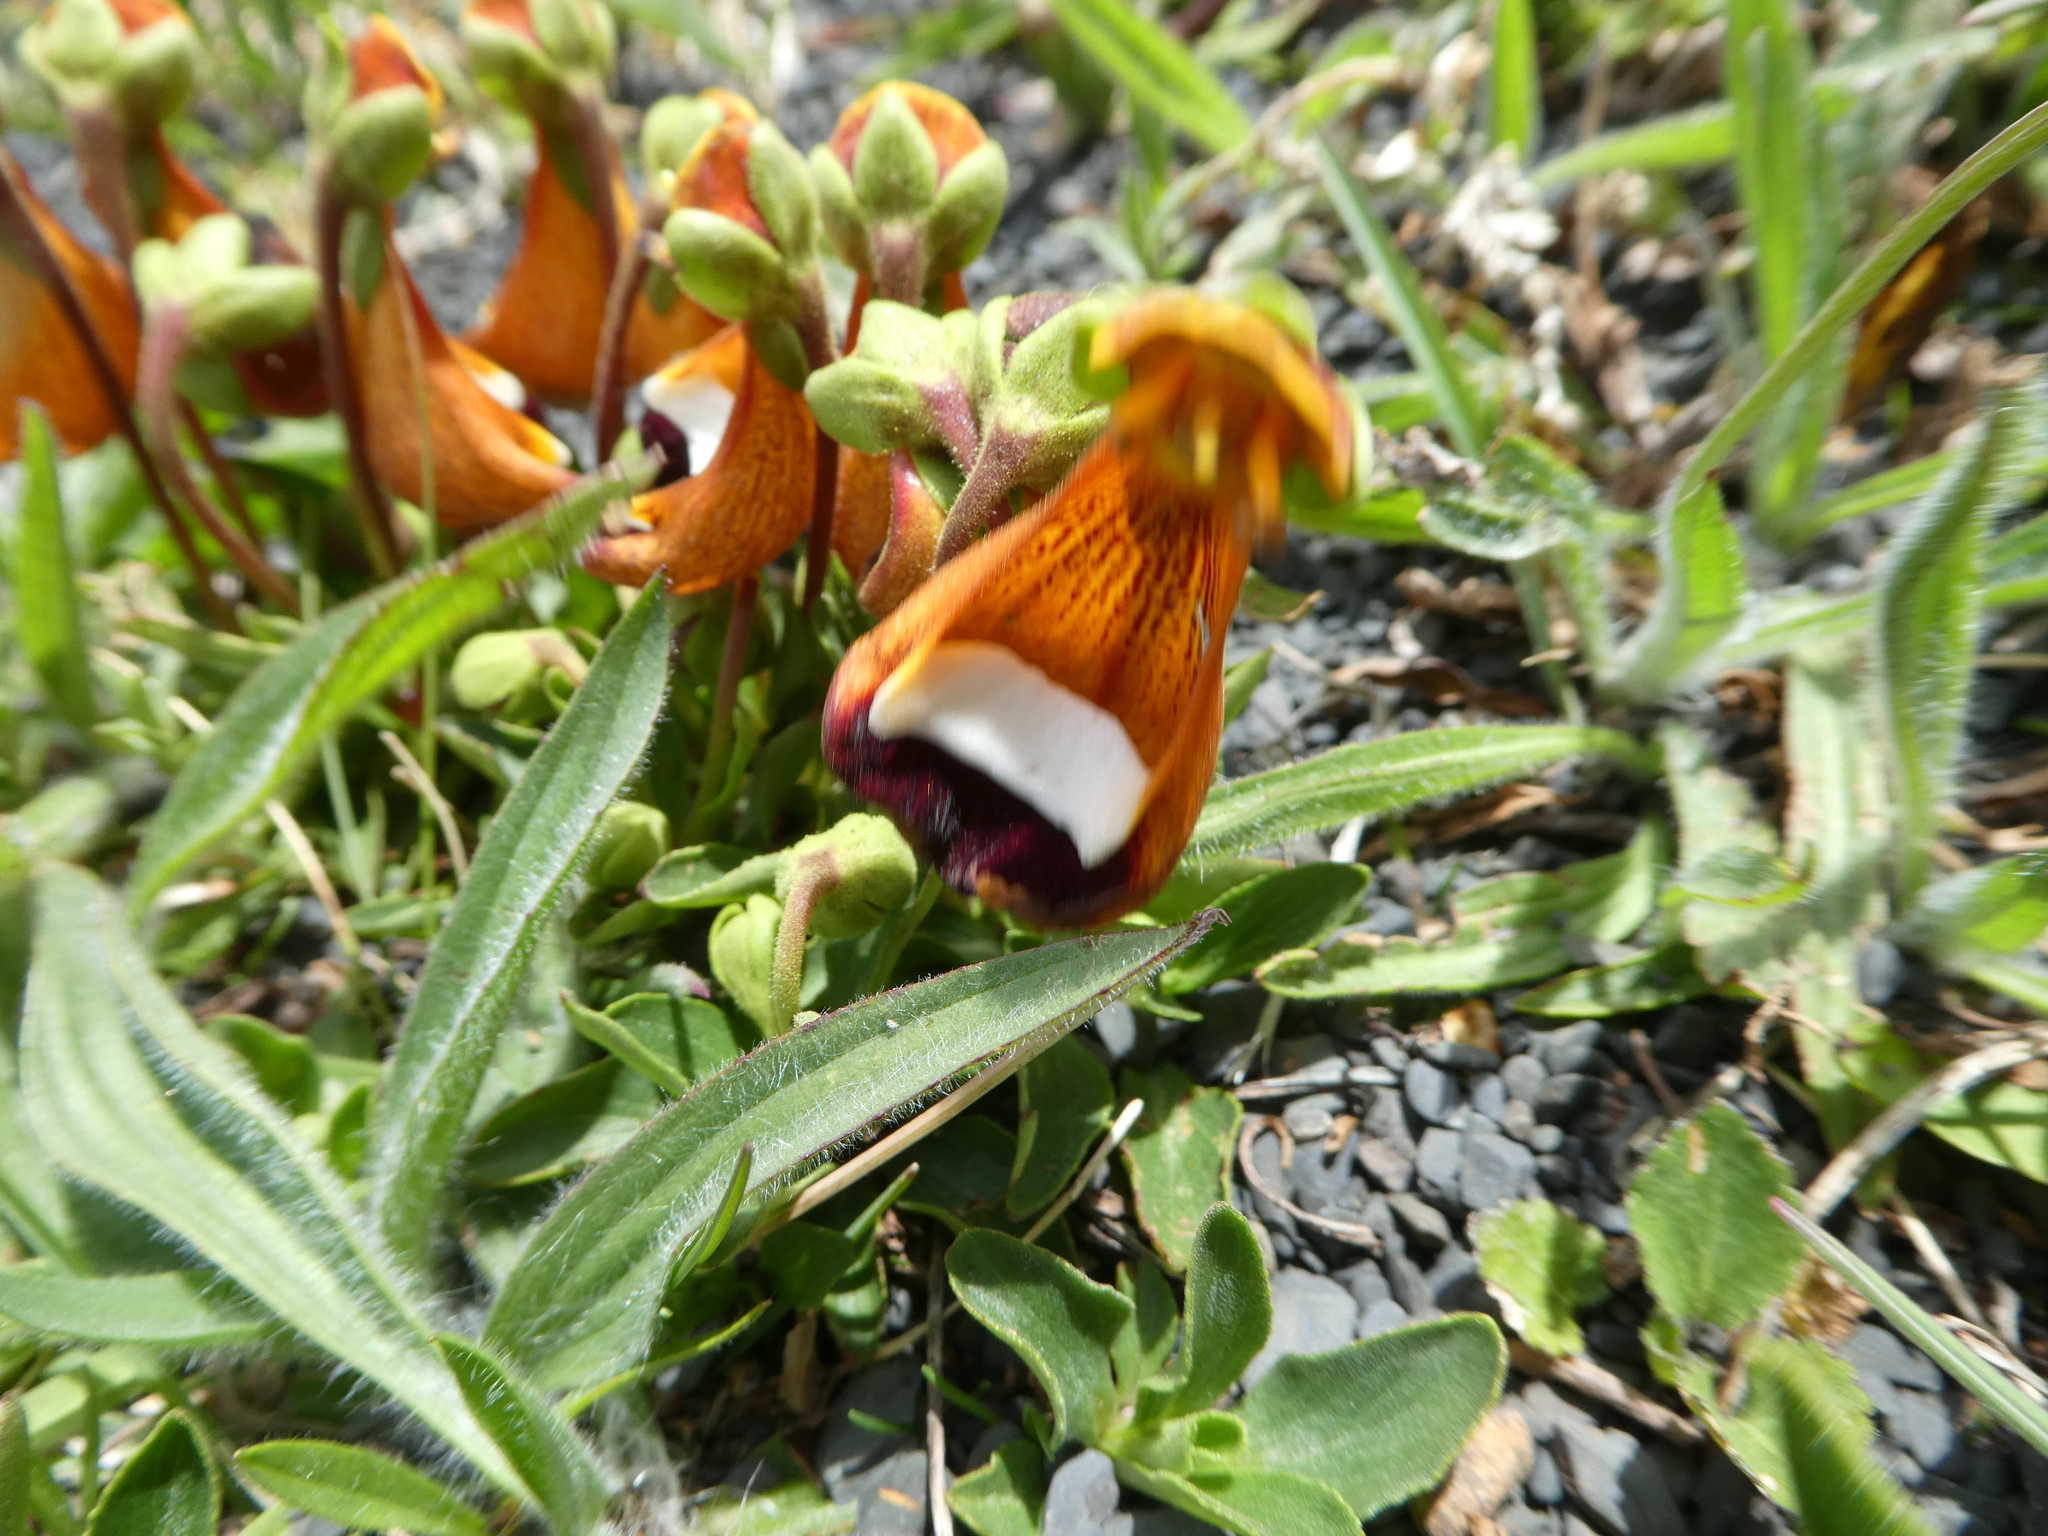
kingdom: Plantae
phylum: Tracheophyta
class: Magnoliopsida
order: Lamiales
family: Calceolariaceae
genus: Calceolaria
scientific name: Calceolaria uniflora
